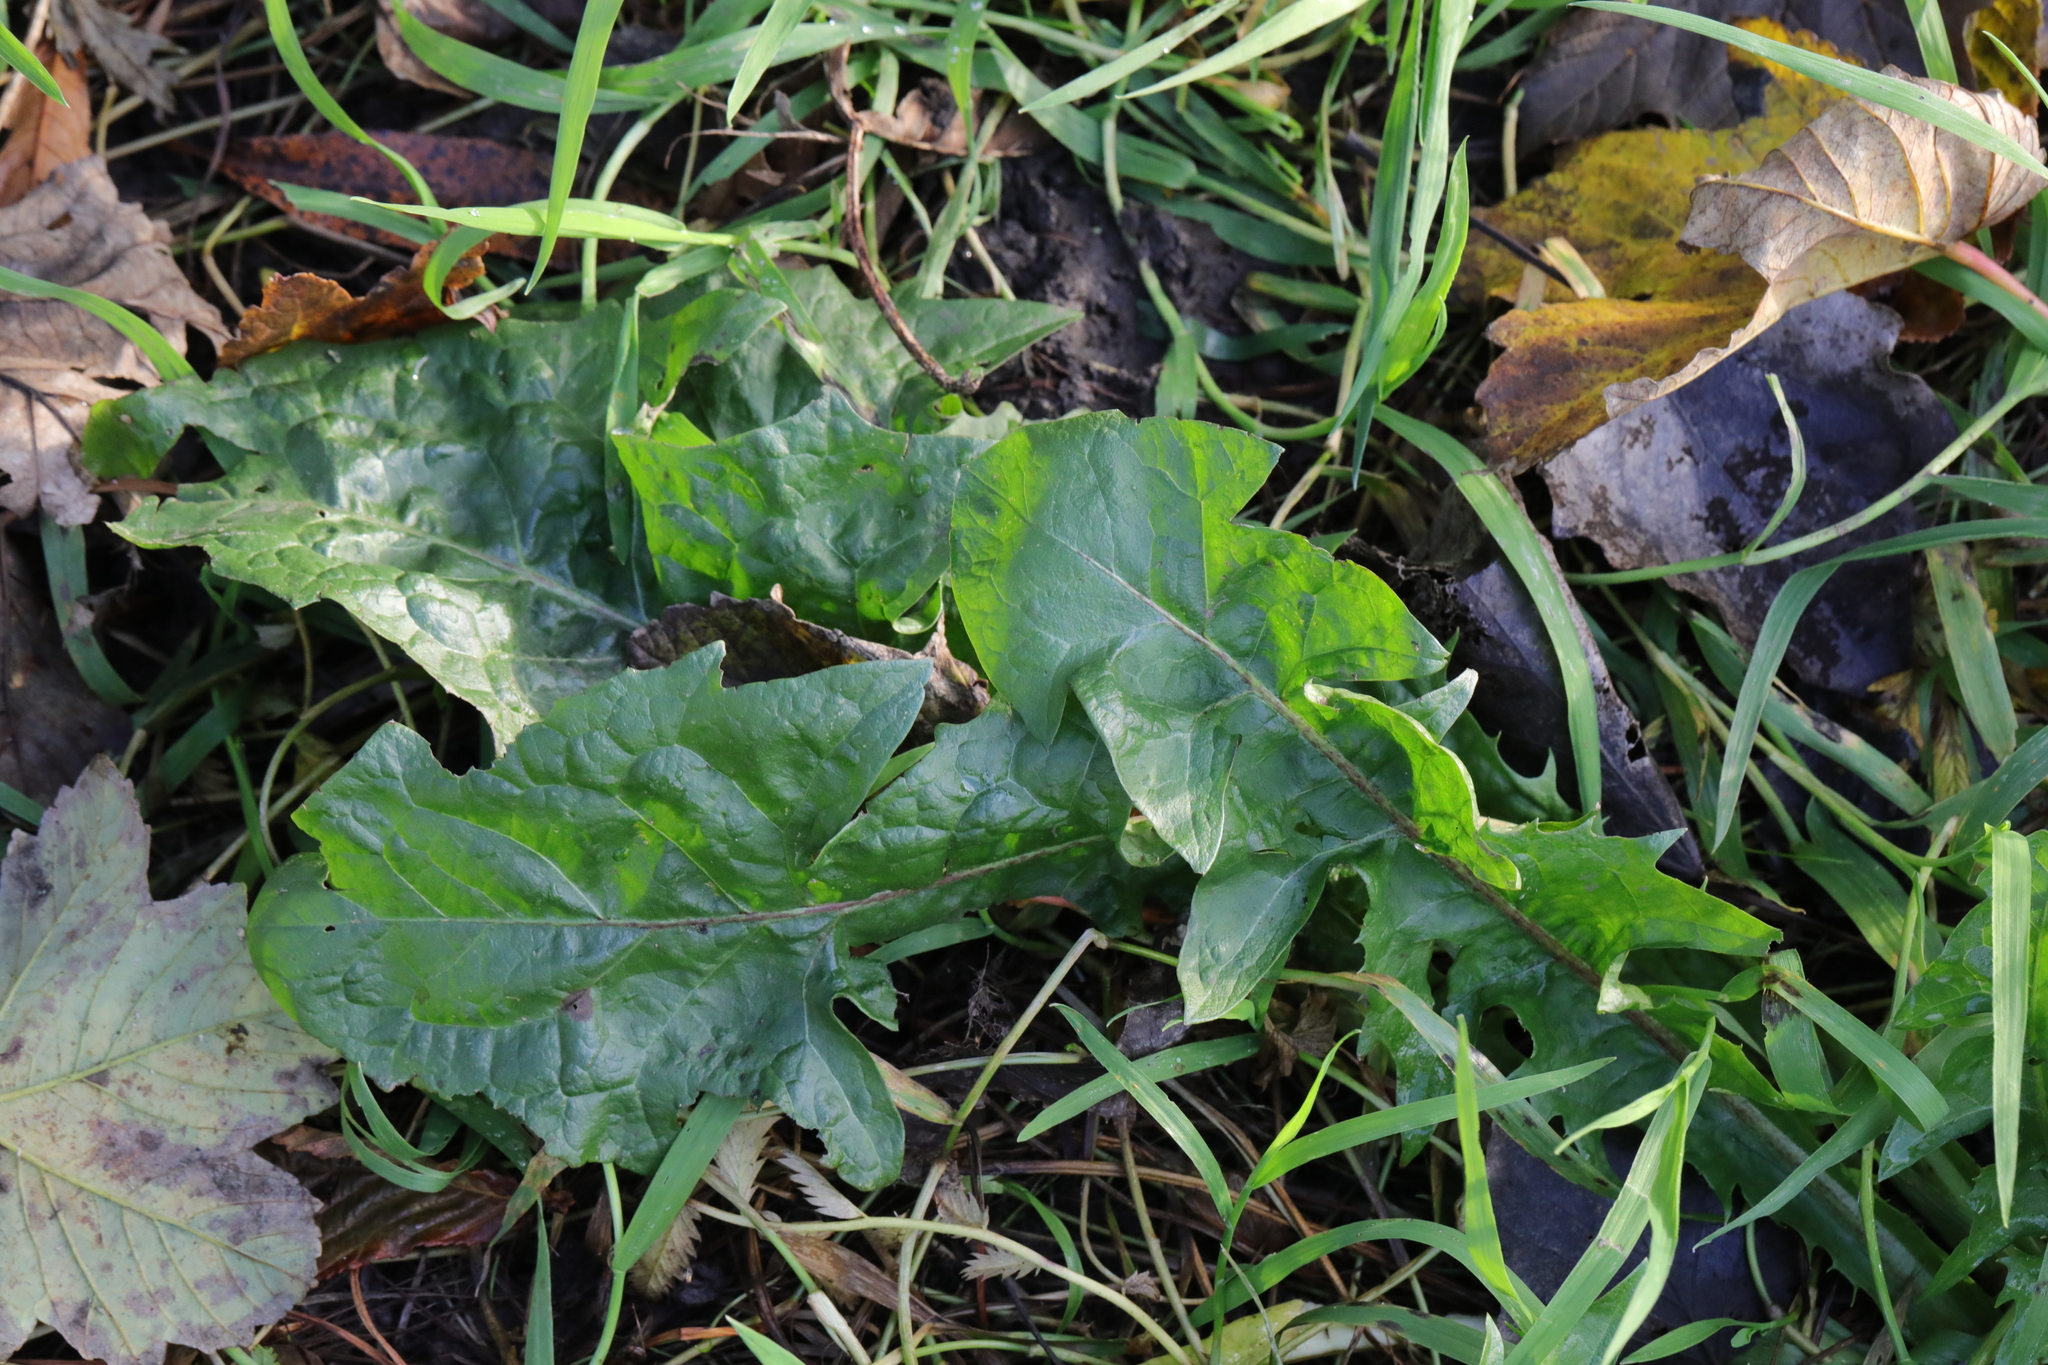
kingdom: Plantae
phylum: Tracheophyta
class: Magnoliopsida
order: Asterales
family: Asteraceae
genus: Taraxacum
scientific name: Taraxacum officinale
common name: Common dandelion
